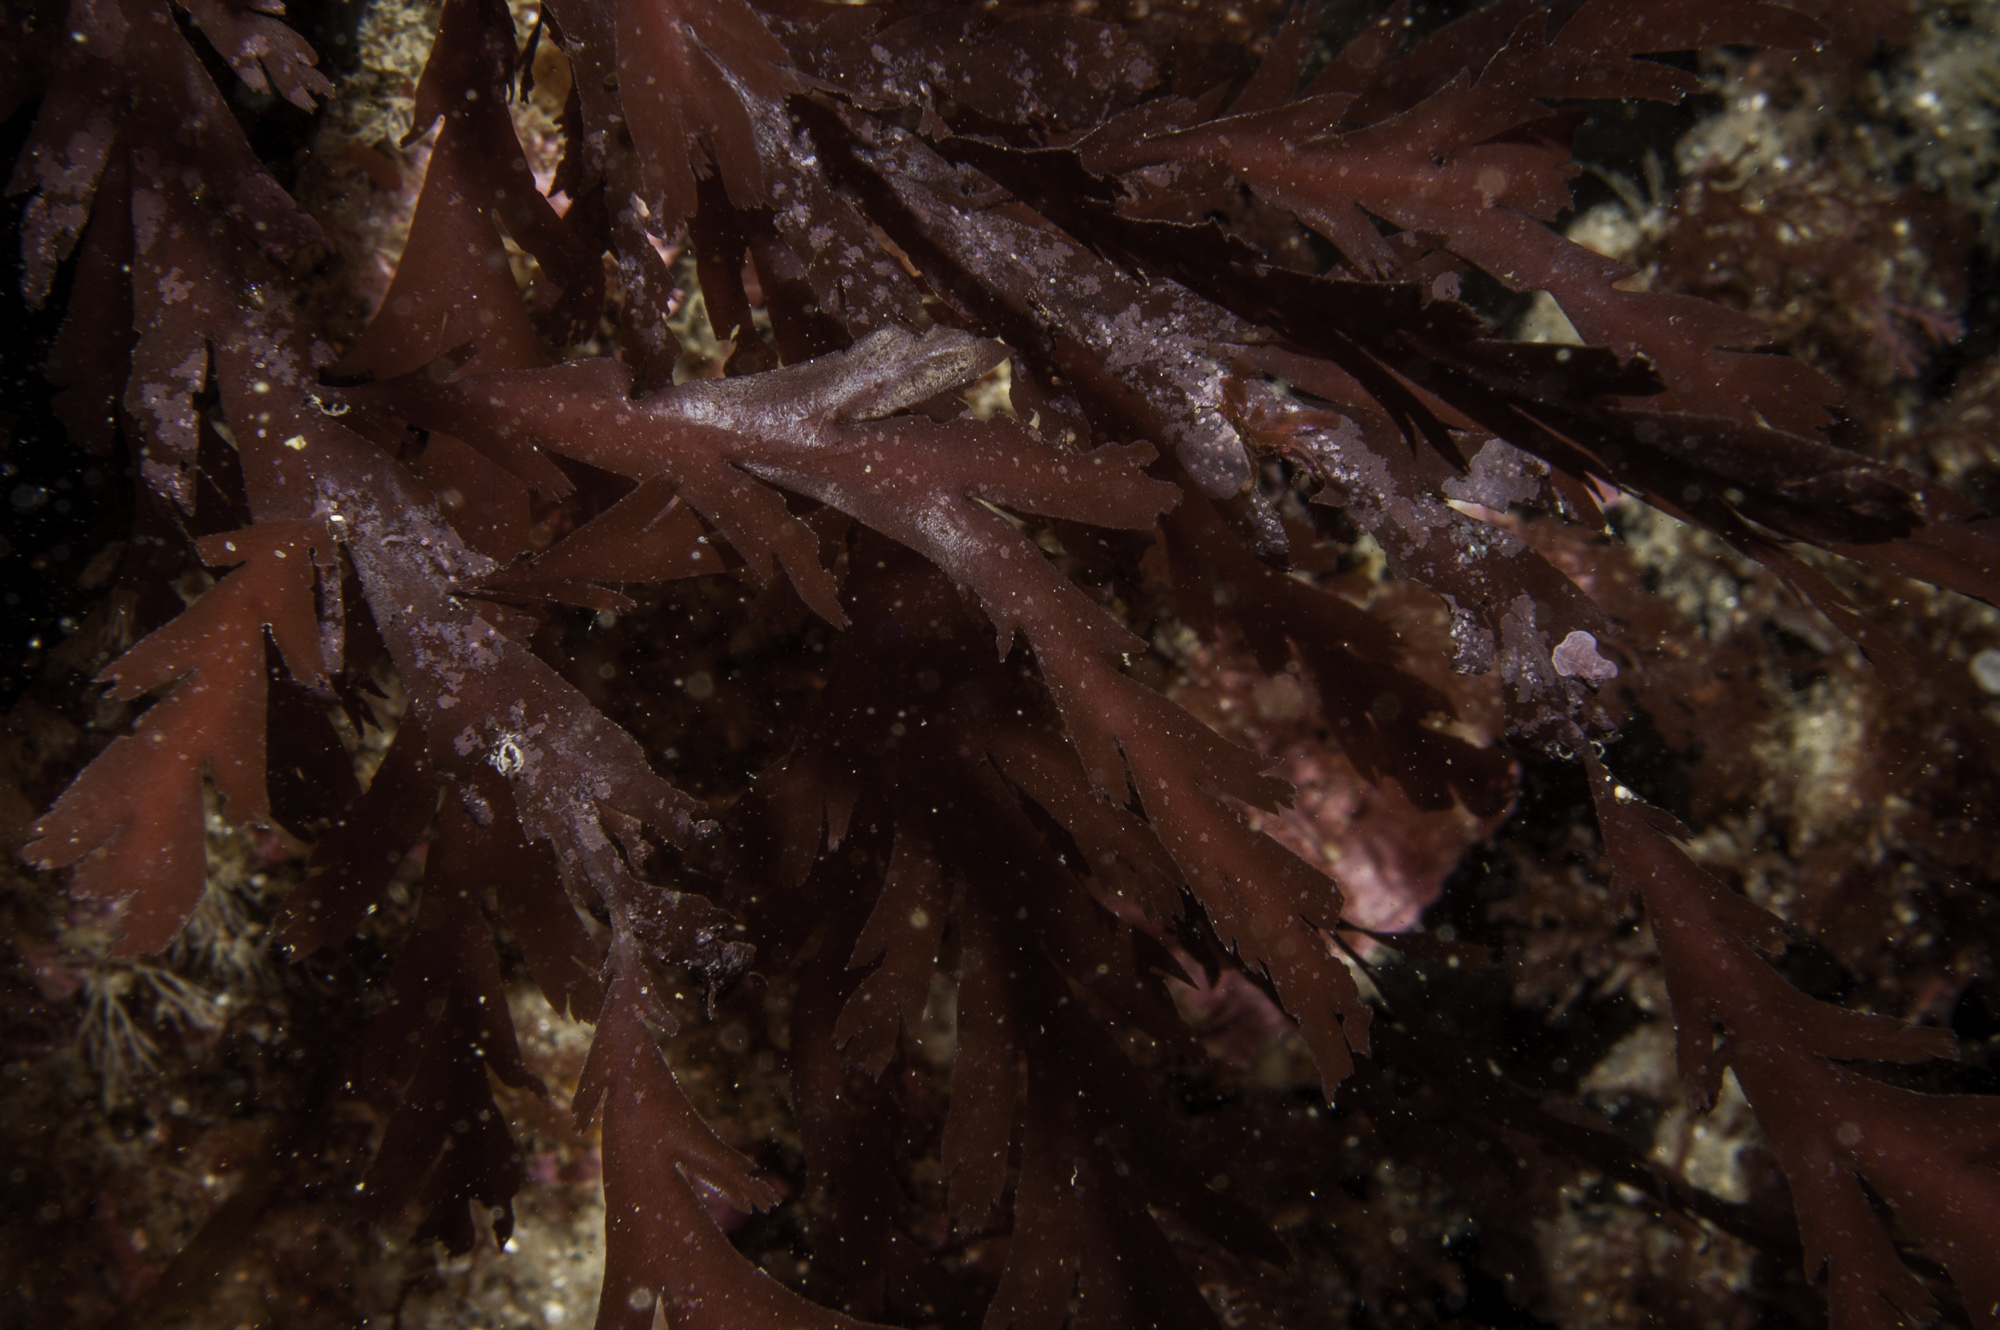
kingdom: Plantae
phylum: Rhodophyta
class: Florideophyceae
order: Ceramiales
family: Rhodomelaceae
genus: Odonthalia
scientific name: Odonthalia dentata
